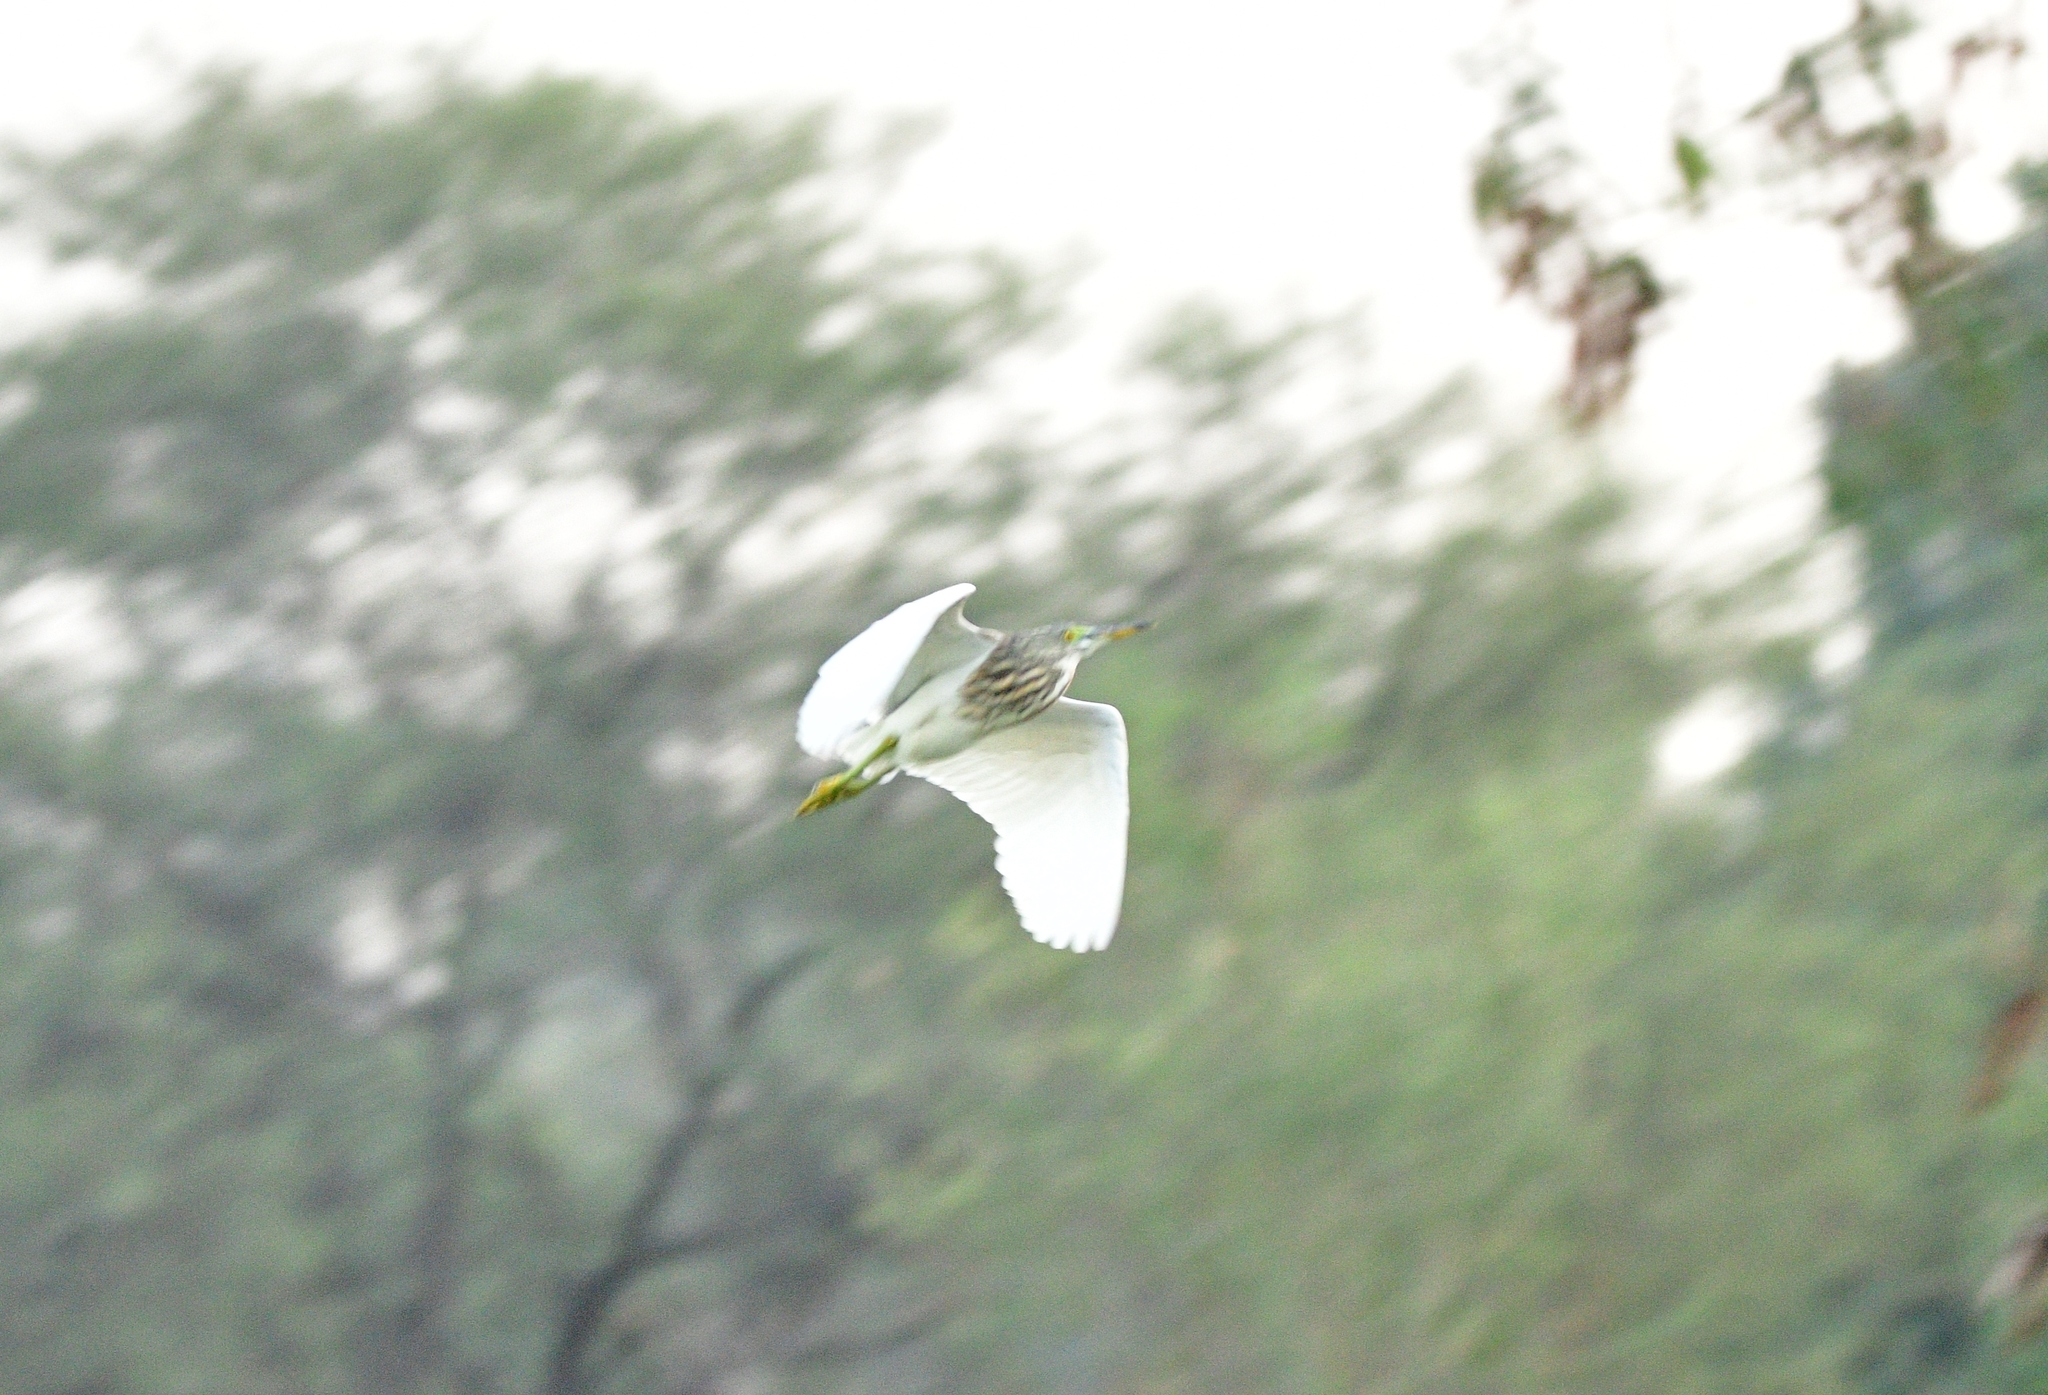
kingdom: Animalia
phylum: Chordata
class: Aves
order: Pelecaniformes
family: Ardeidae
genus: Ardeola
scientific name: Ardeola grayii
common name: Indian pond heron
